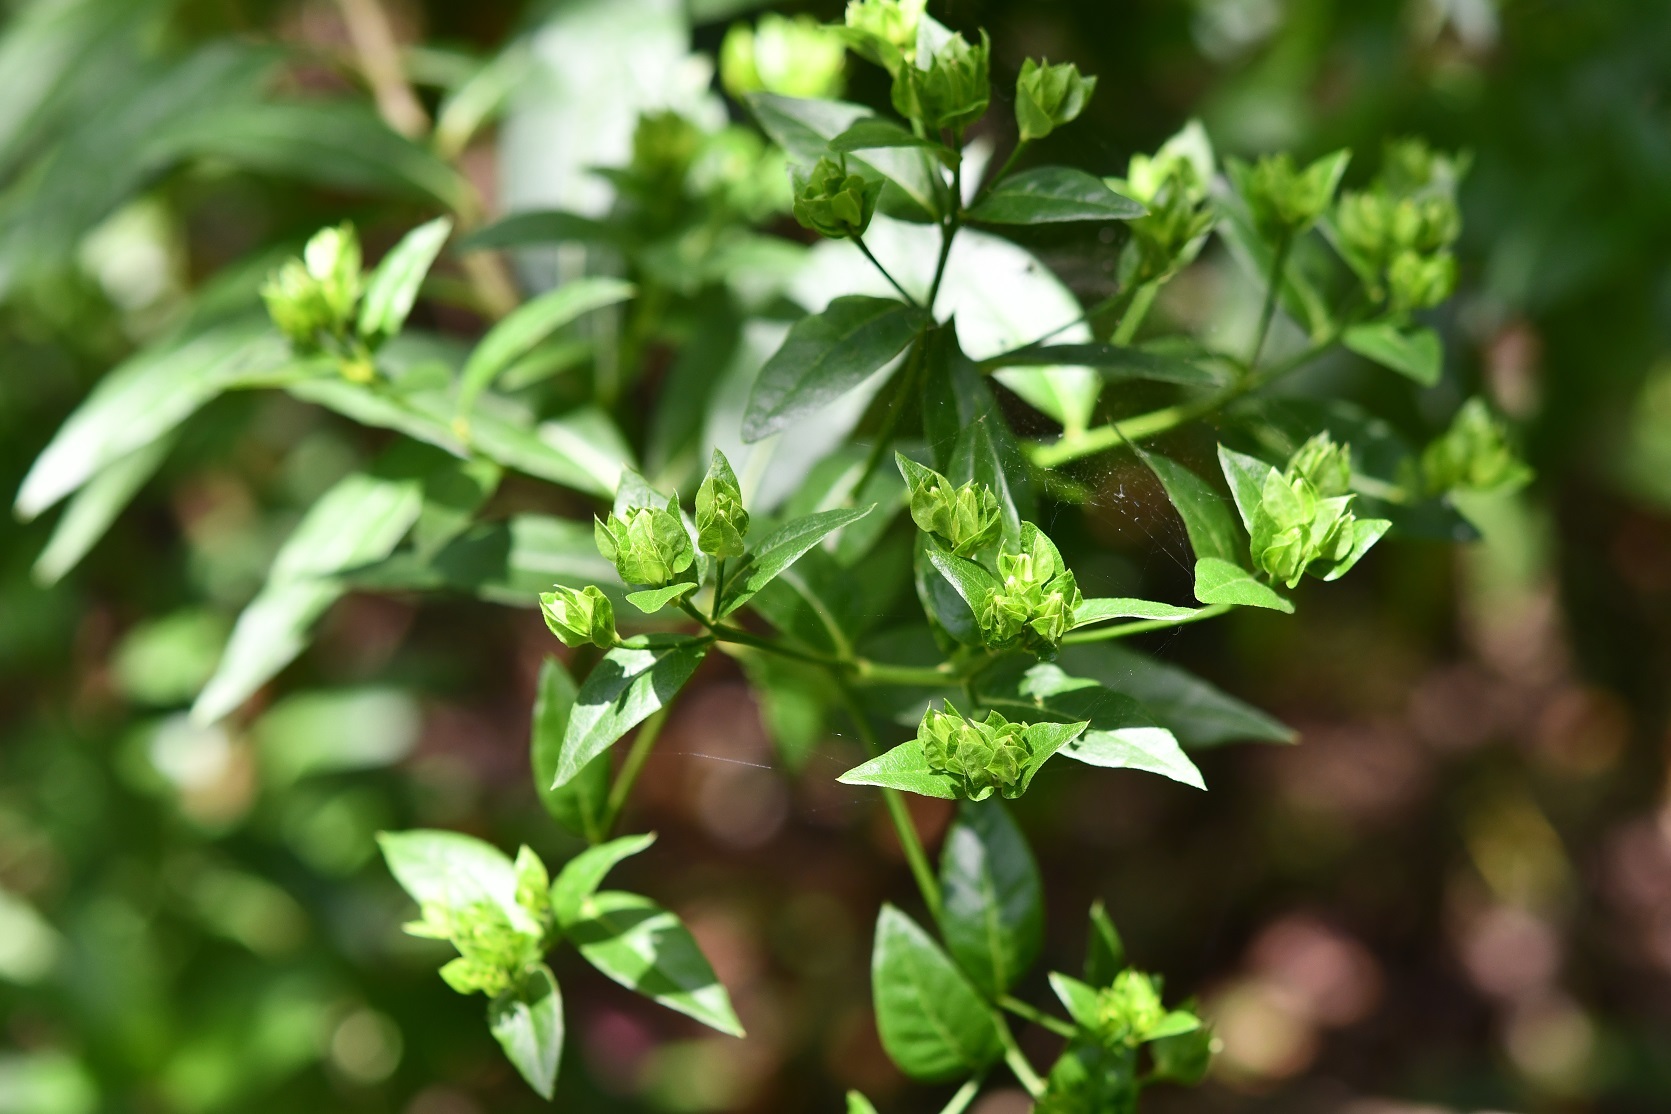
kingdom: Plantae
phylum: Tracheophyta
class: Magnoliopsida
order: Asterales
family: Asteraceae
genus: Trixis
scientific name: Trixis inula
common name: Tropical threefold
